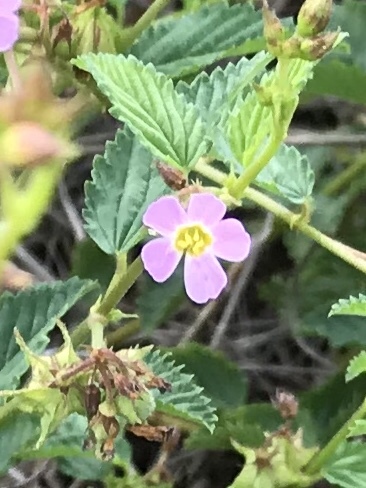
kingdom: Plantae
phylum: Tracheophyta
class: Magnoliopsida
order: Malvales
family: Malvaceae
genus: Melochia
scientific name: Melochia pyramidata
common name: Pyramidflower
